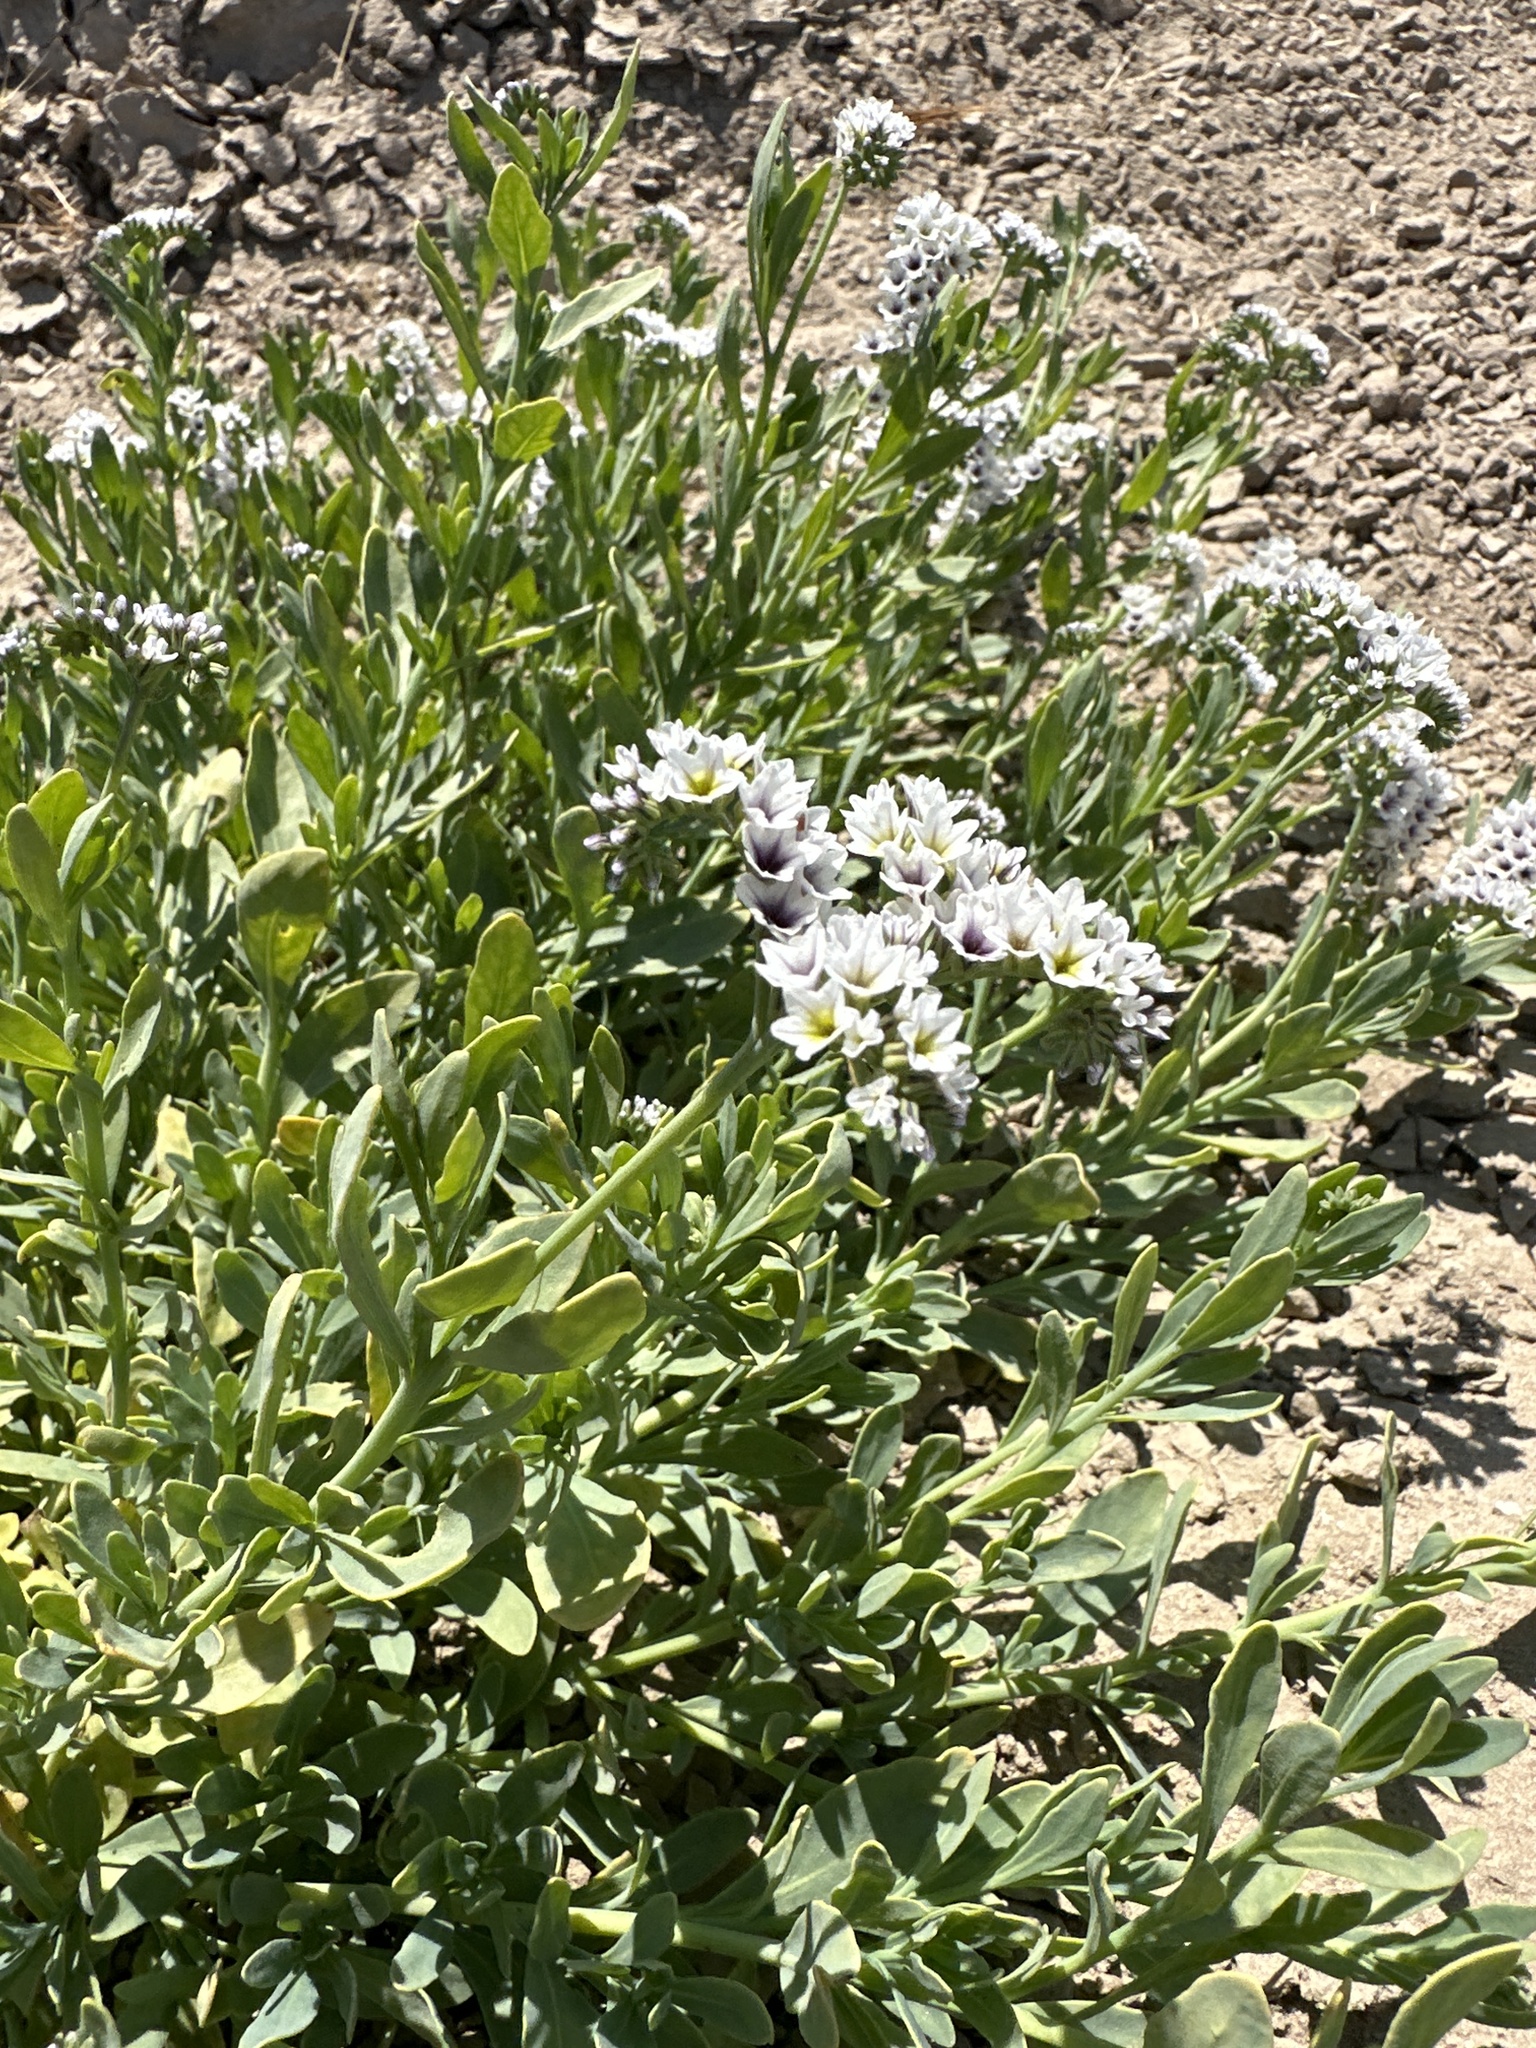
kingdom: Plantae
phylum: Tracheophyta
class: Magnoliopsida
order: Boraginales
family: Heliotropiaceae
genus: Heliotropium
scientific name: Heliotropium curassavicum
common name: Seaside heliotrope
